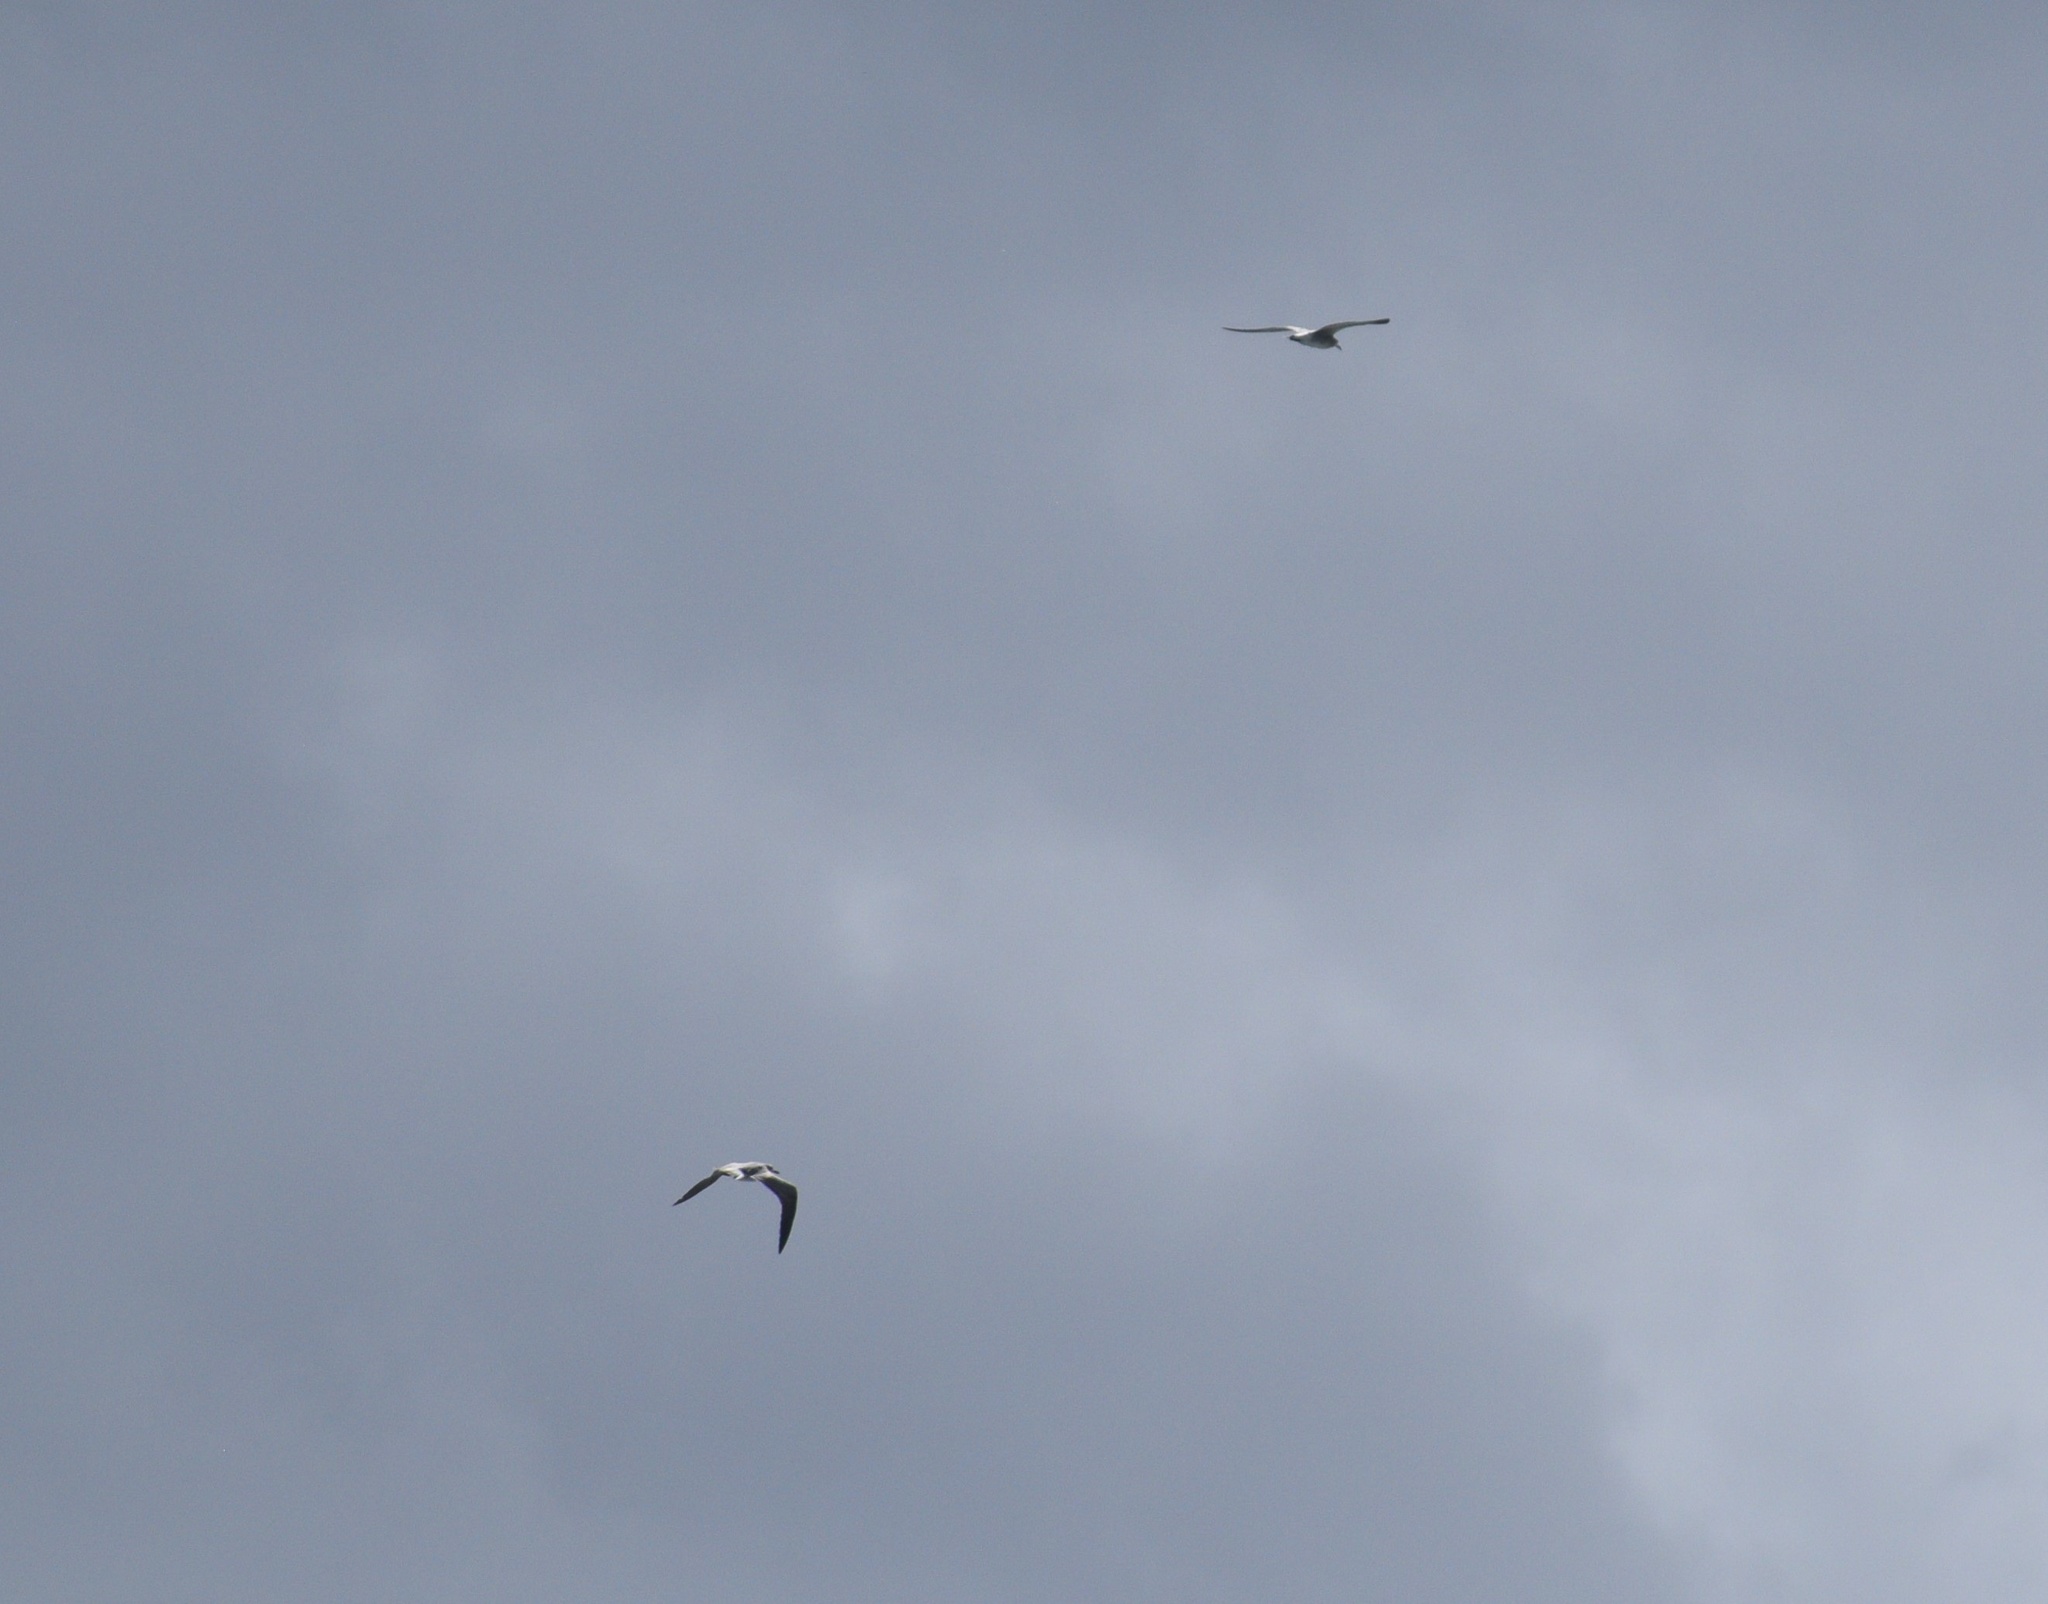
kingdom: Animalia
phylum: Chordata
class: Aves
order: Charadriiformes
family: Laridae
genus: Leucophaeus
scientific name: Leucophaeus atricilla
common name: Laughing gull
